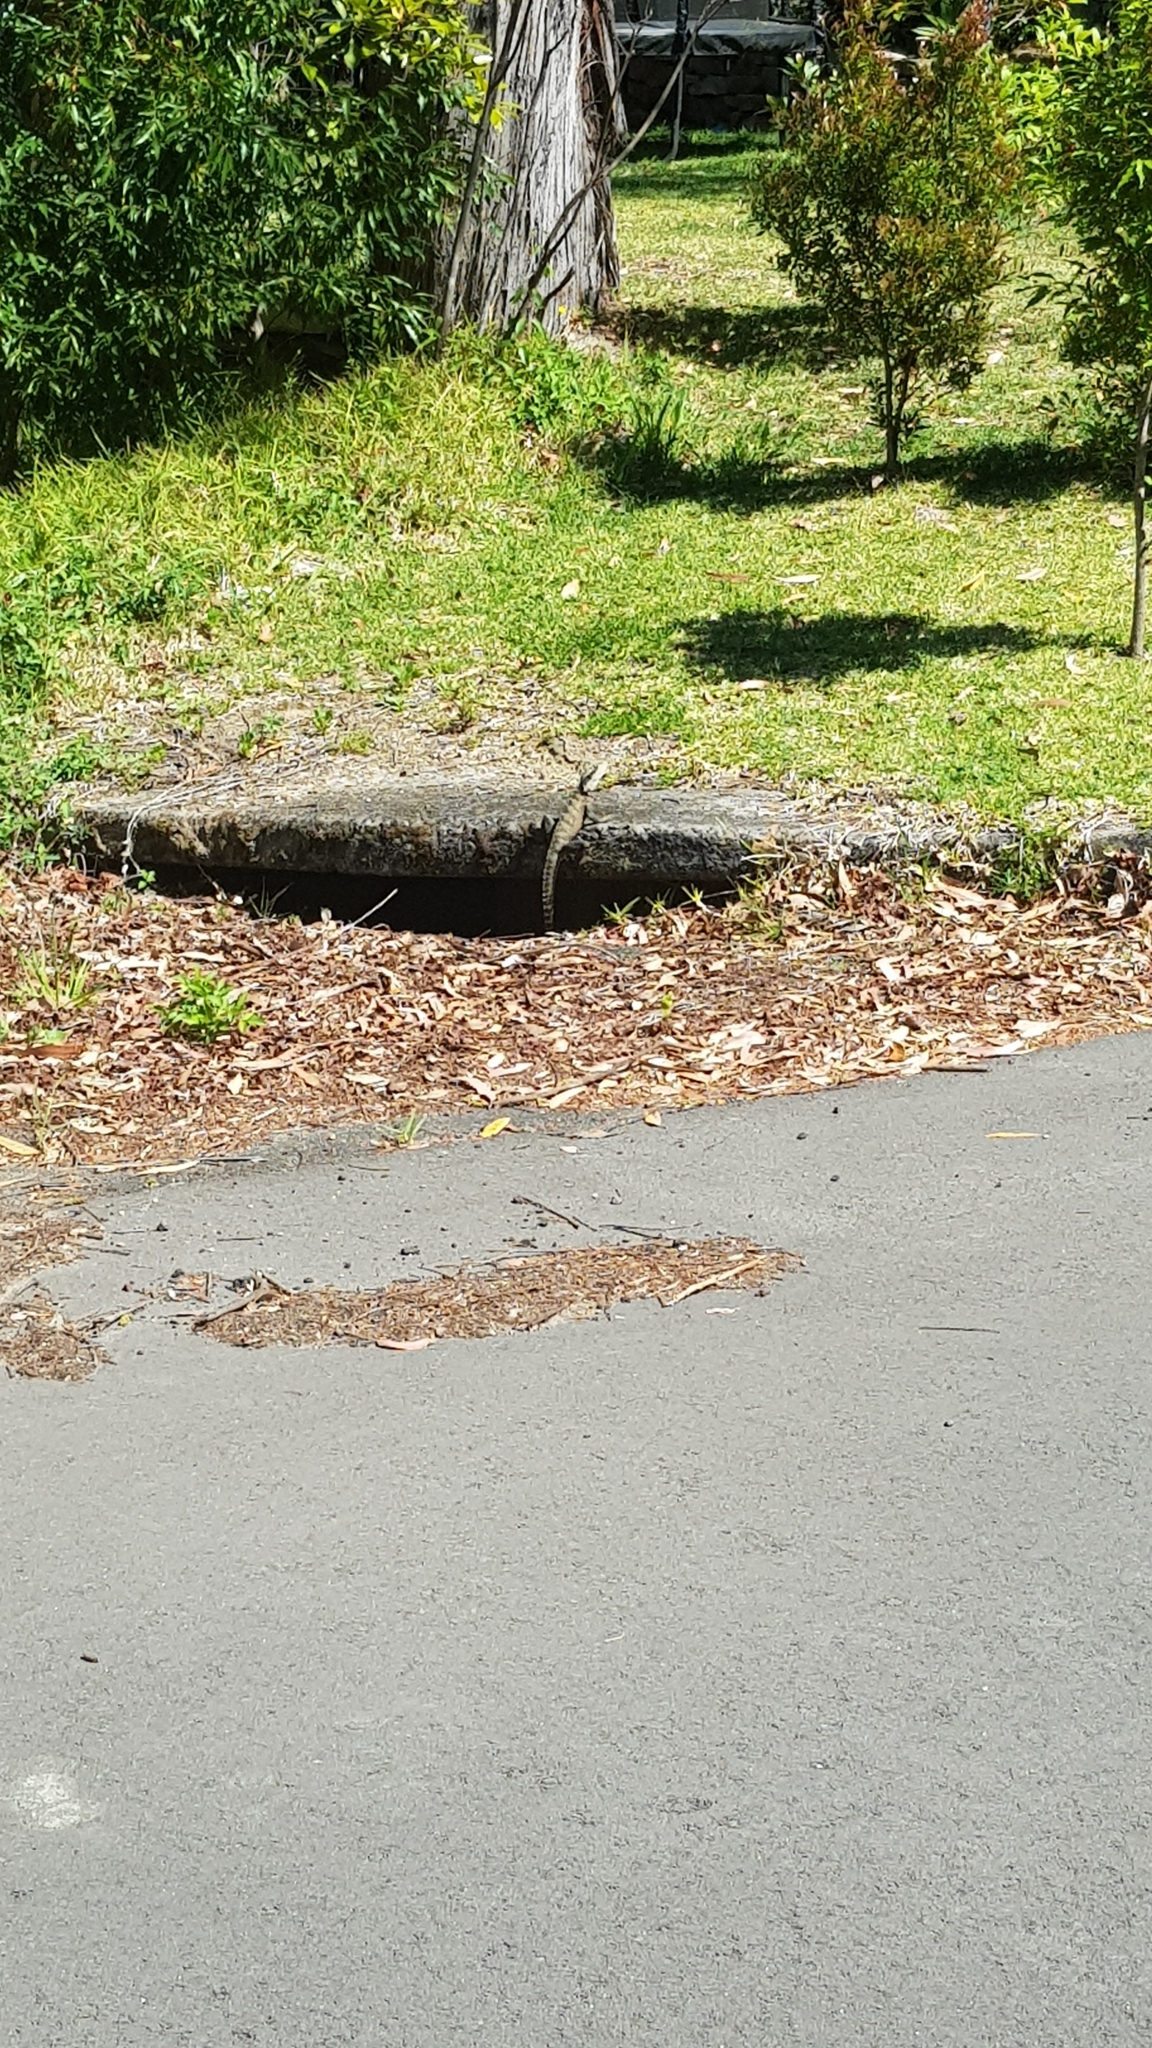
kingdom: Animalia
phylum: Chordata
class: Squamata
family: Agamidae
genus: Intellagama
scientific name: Intellagama lesueurii
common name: Eastern water dragon
